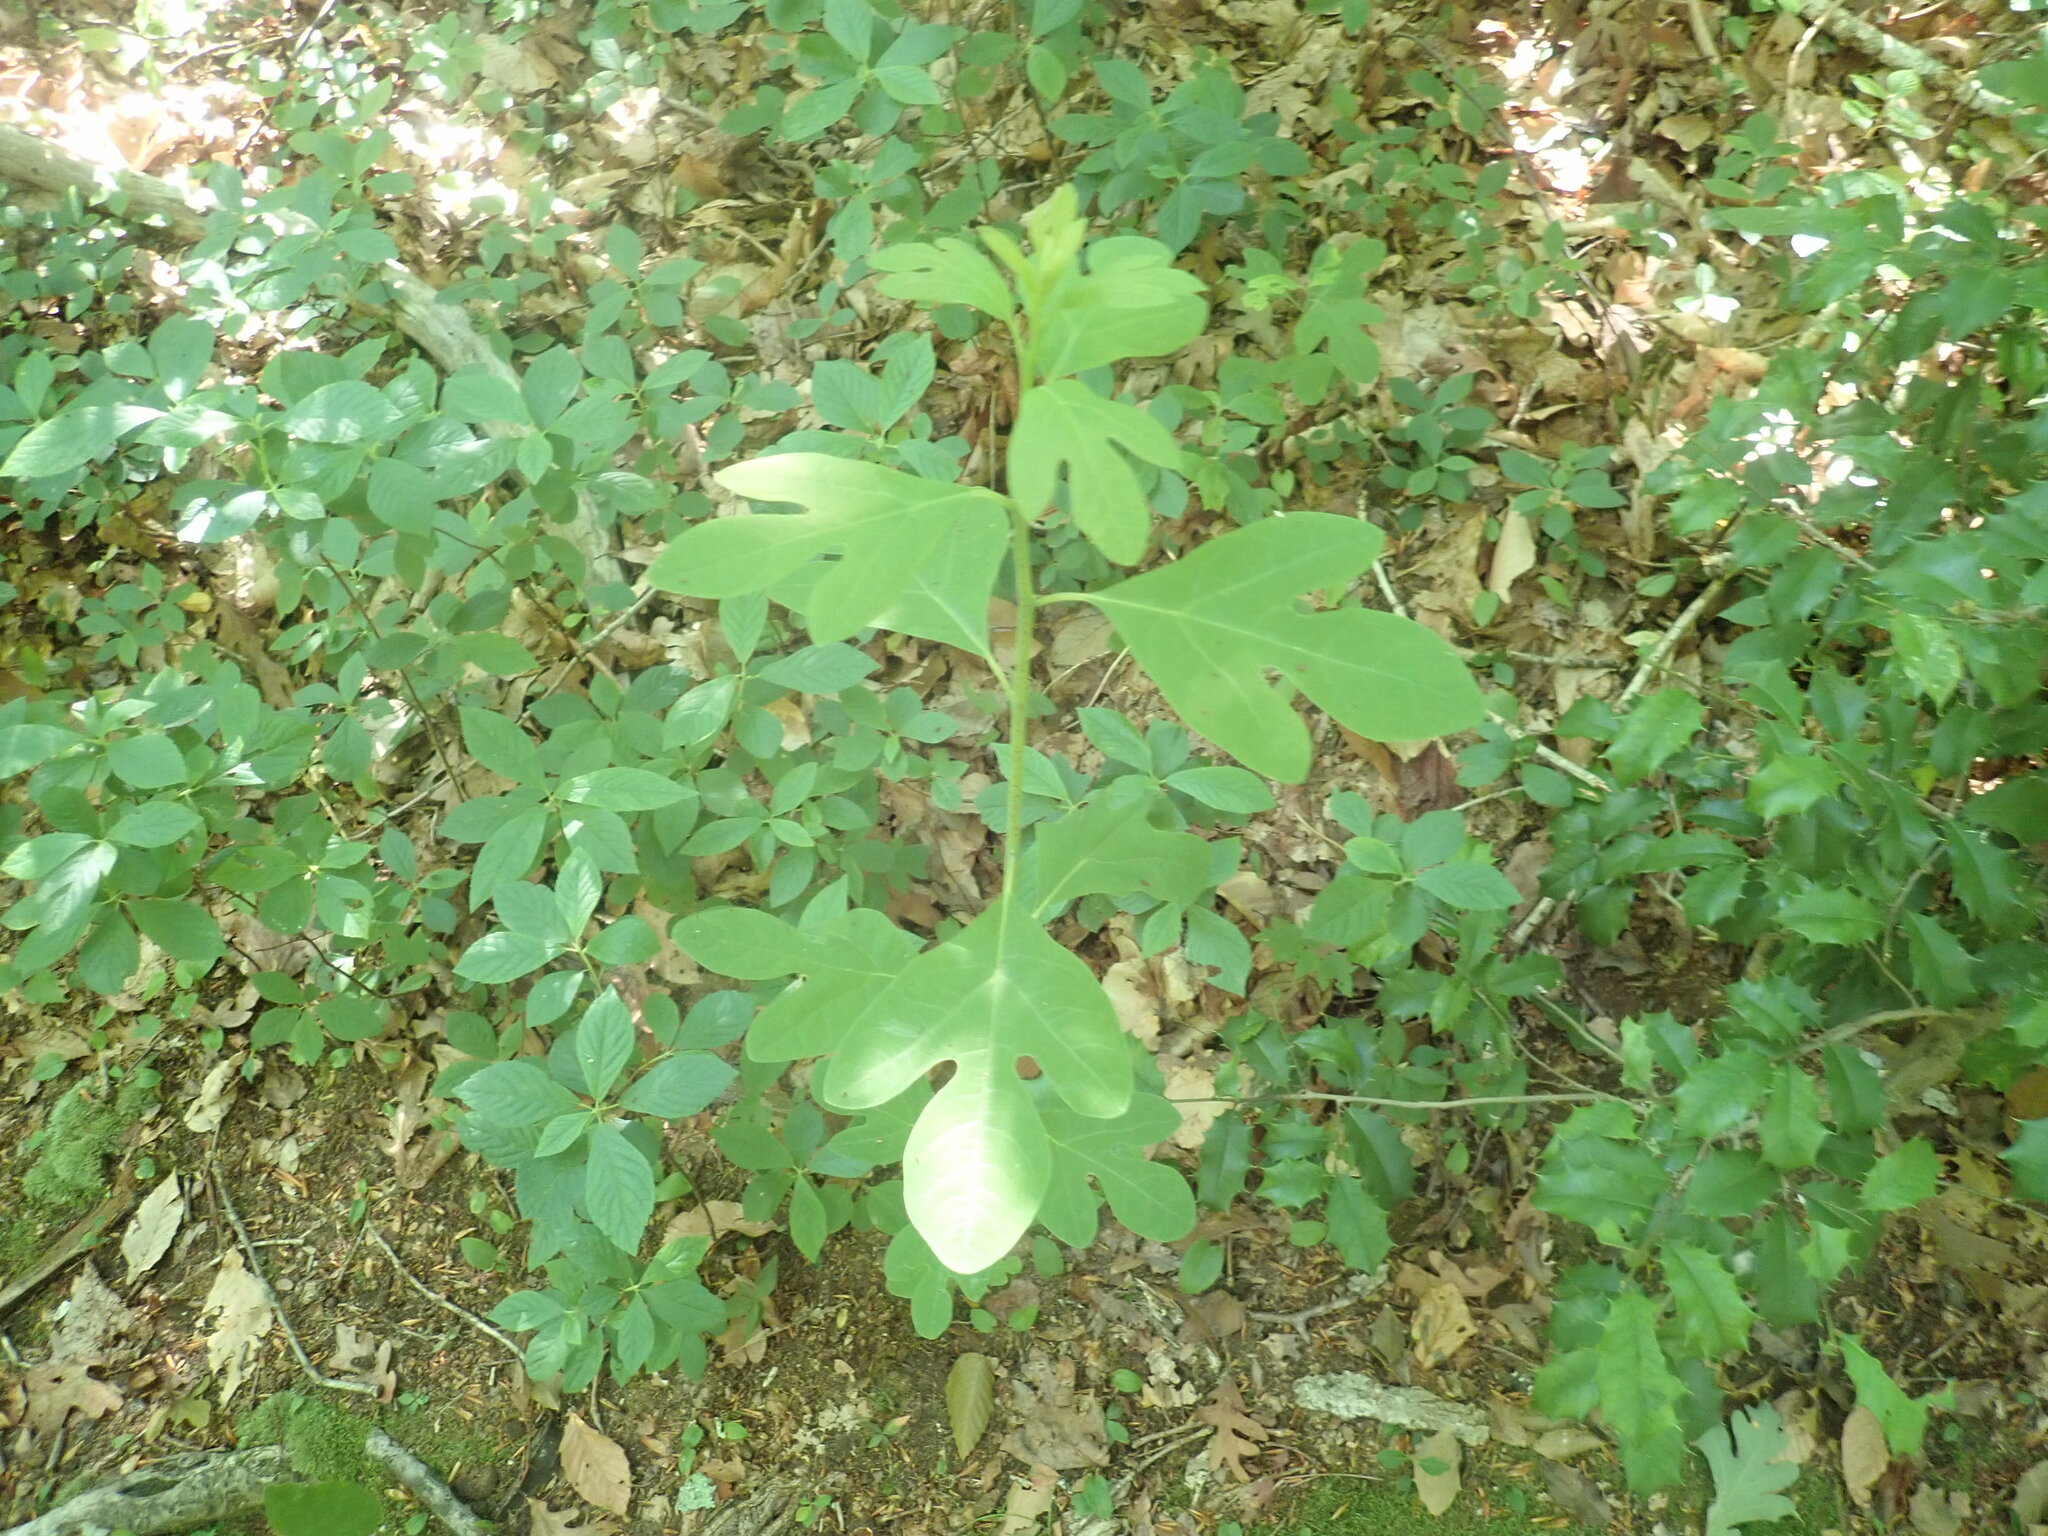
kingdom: Plantae
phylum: Tracheophyta
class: Magnoliopsida
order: Laurales
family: Lauraceae
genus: Sassafras
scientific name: Sassafras albidum
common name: Sassafras
